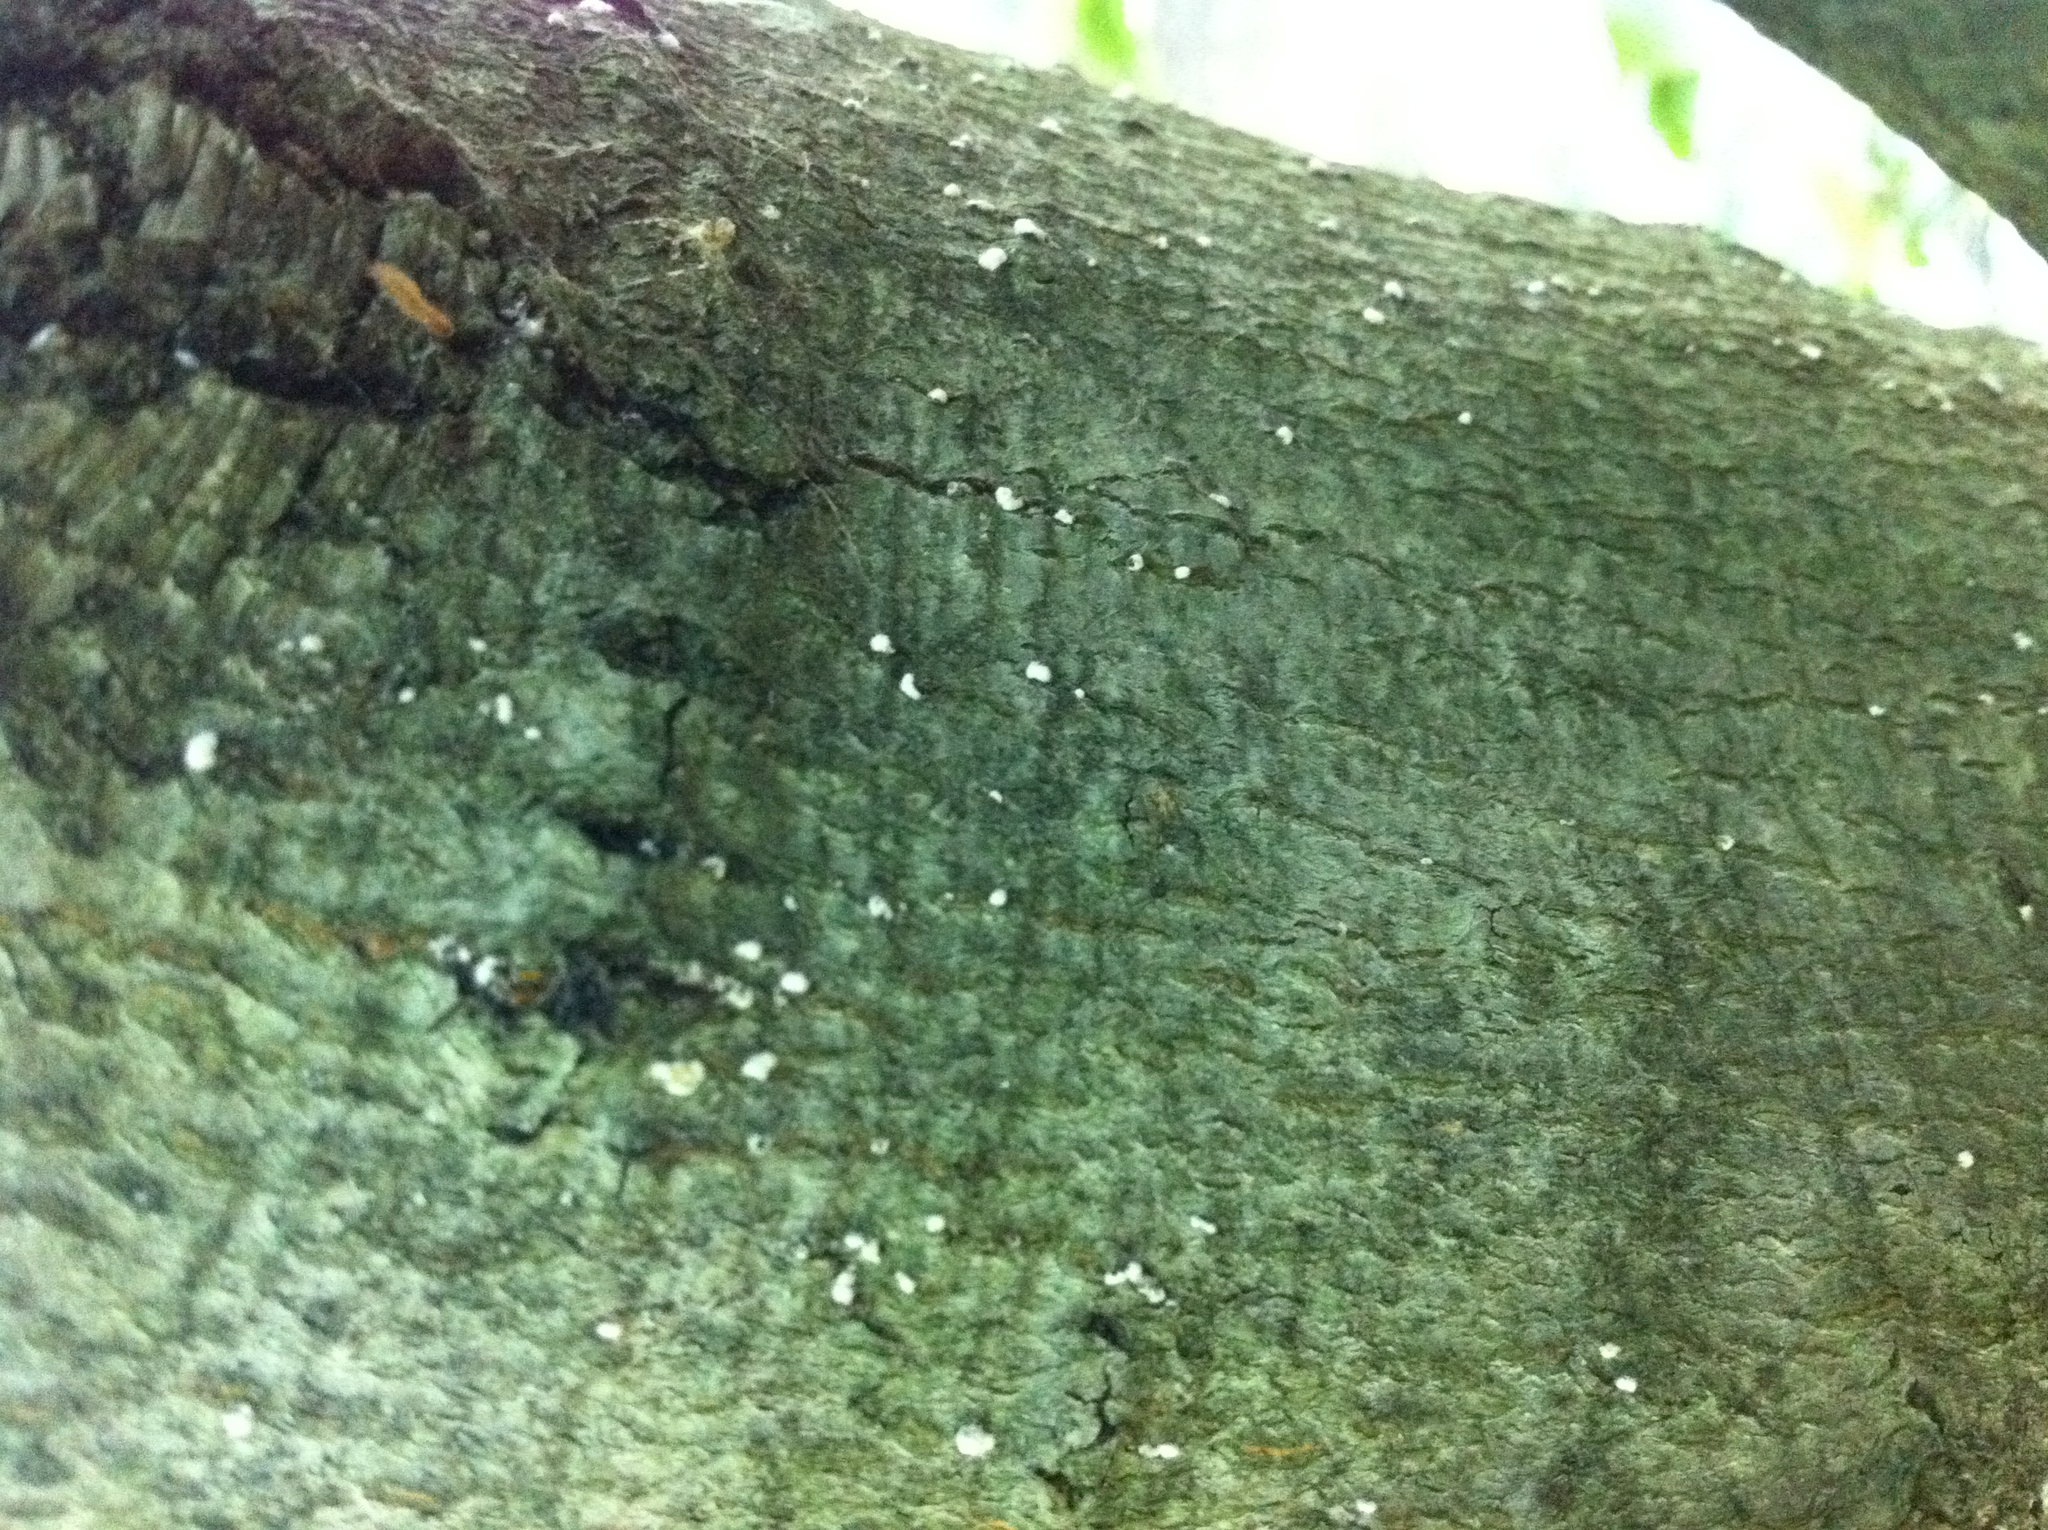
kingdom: Plantae
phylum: Tracheophyta
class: Magnoliopsida
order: Fagales
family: Fagaceae
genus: Fagus
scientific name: Fagus grandifolia
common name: American beech
